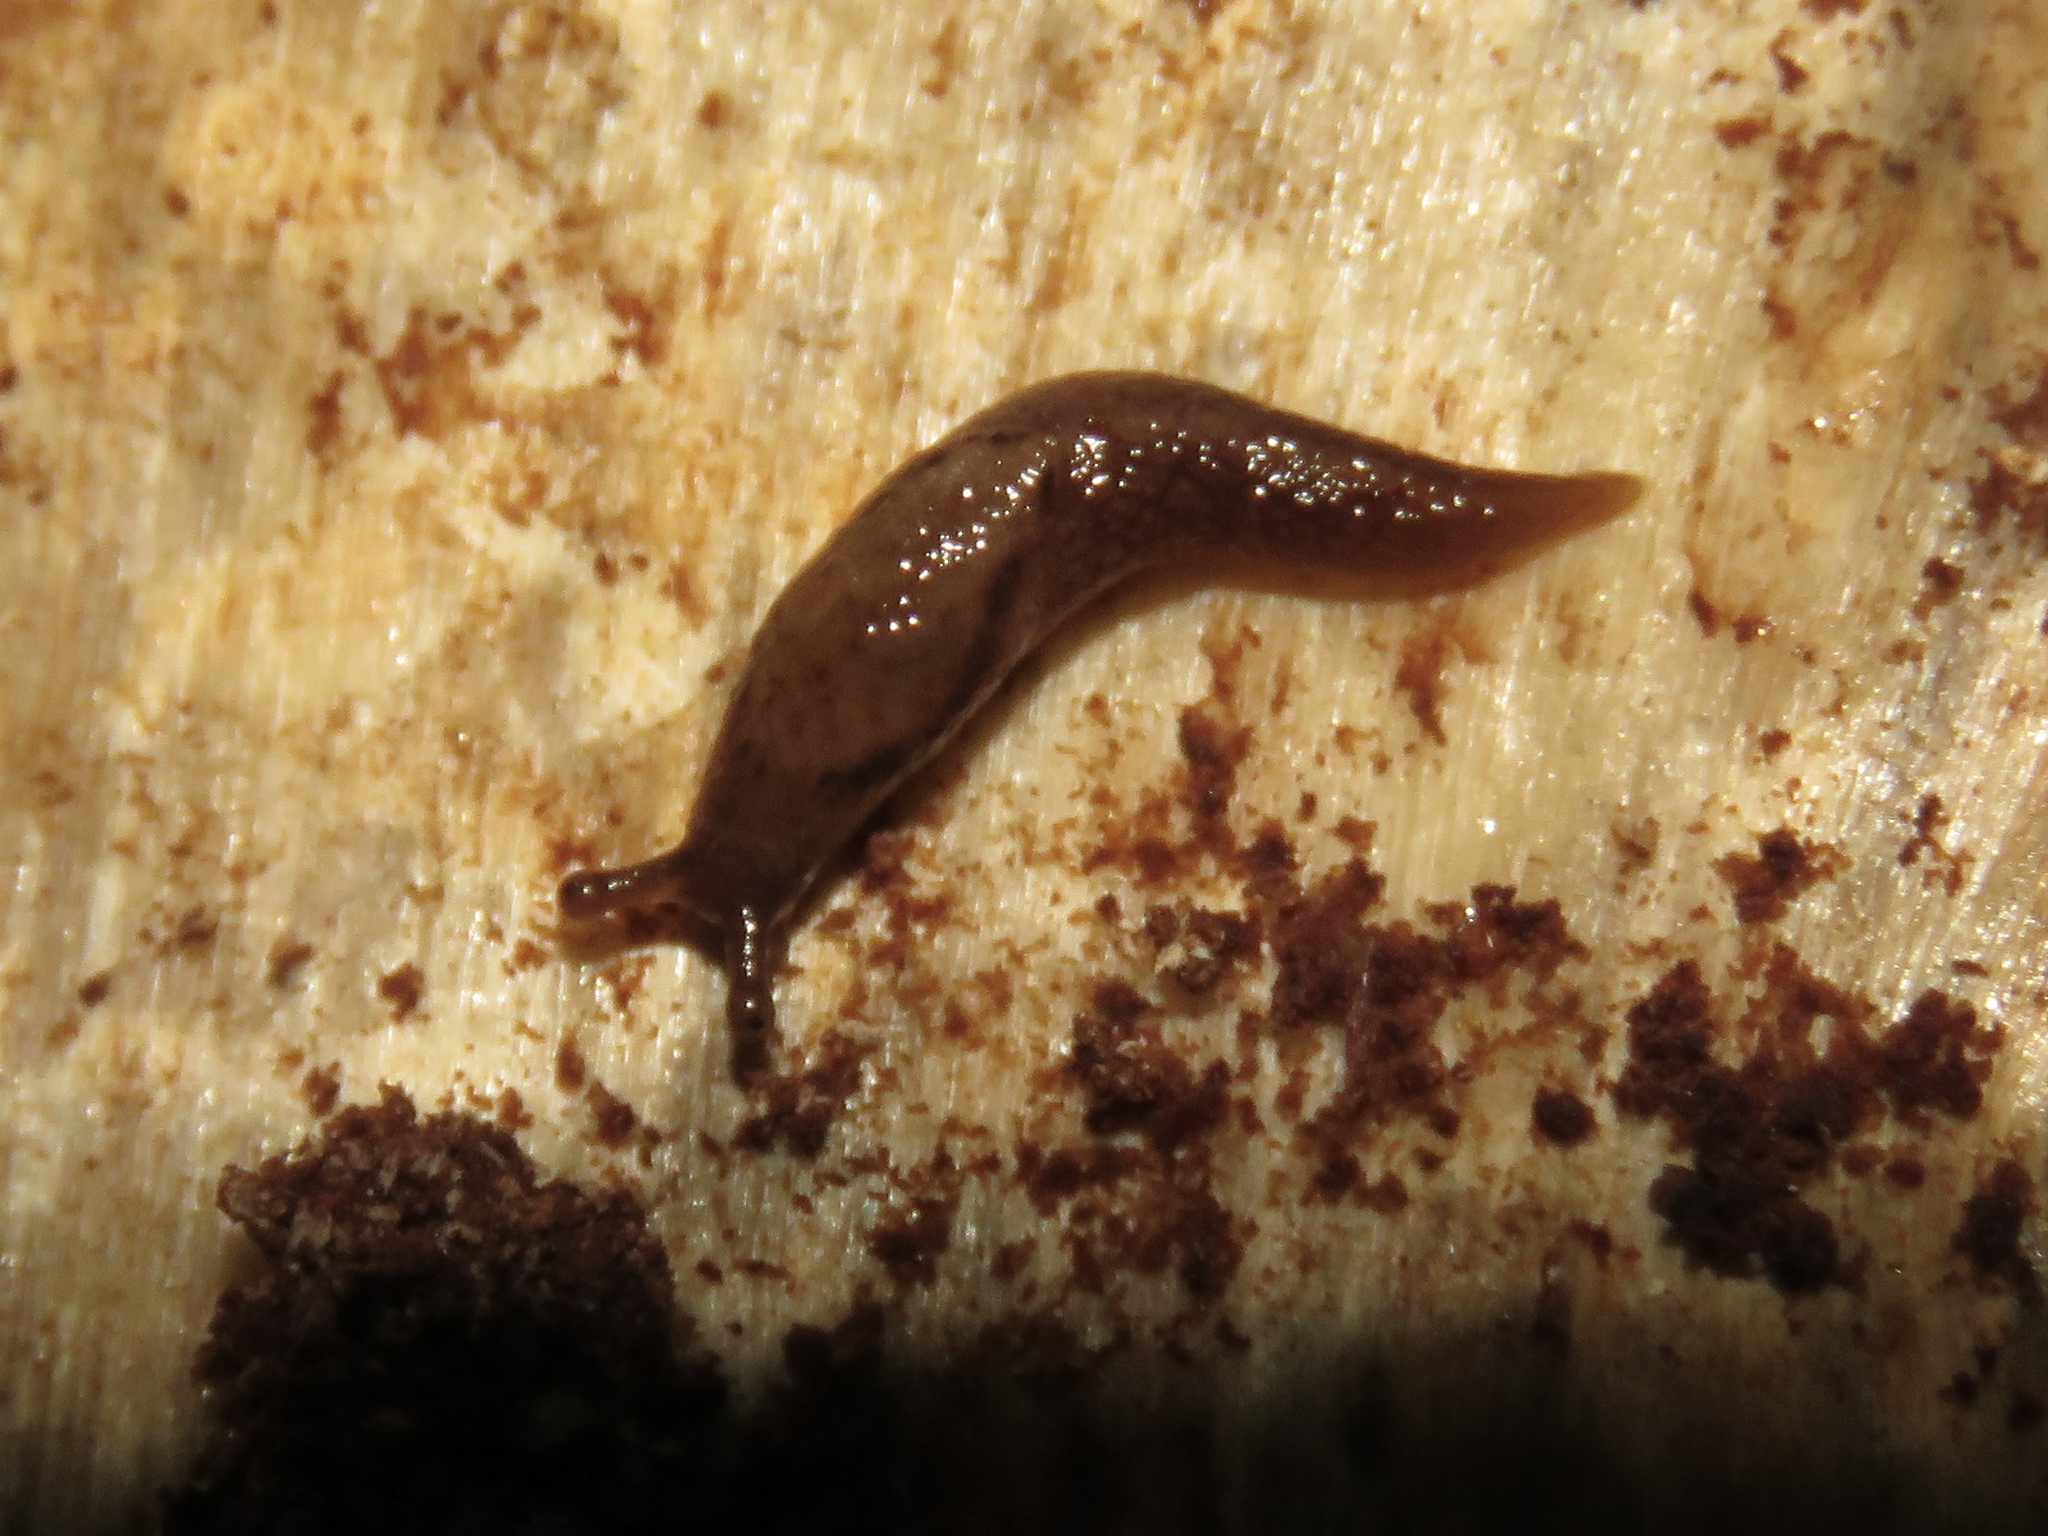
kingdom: Animalia
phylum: Mollusca
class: Gastropoda
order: Stylommatophora
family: Ariolimacidae
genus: Prophysaon
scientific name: Prophysaon andersonii
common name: Reticulate taildropper
